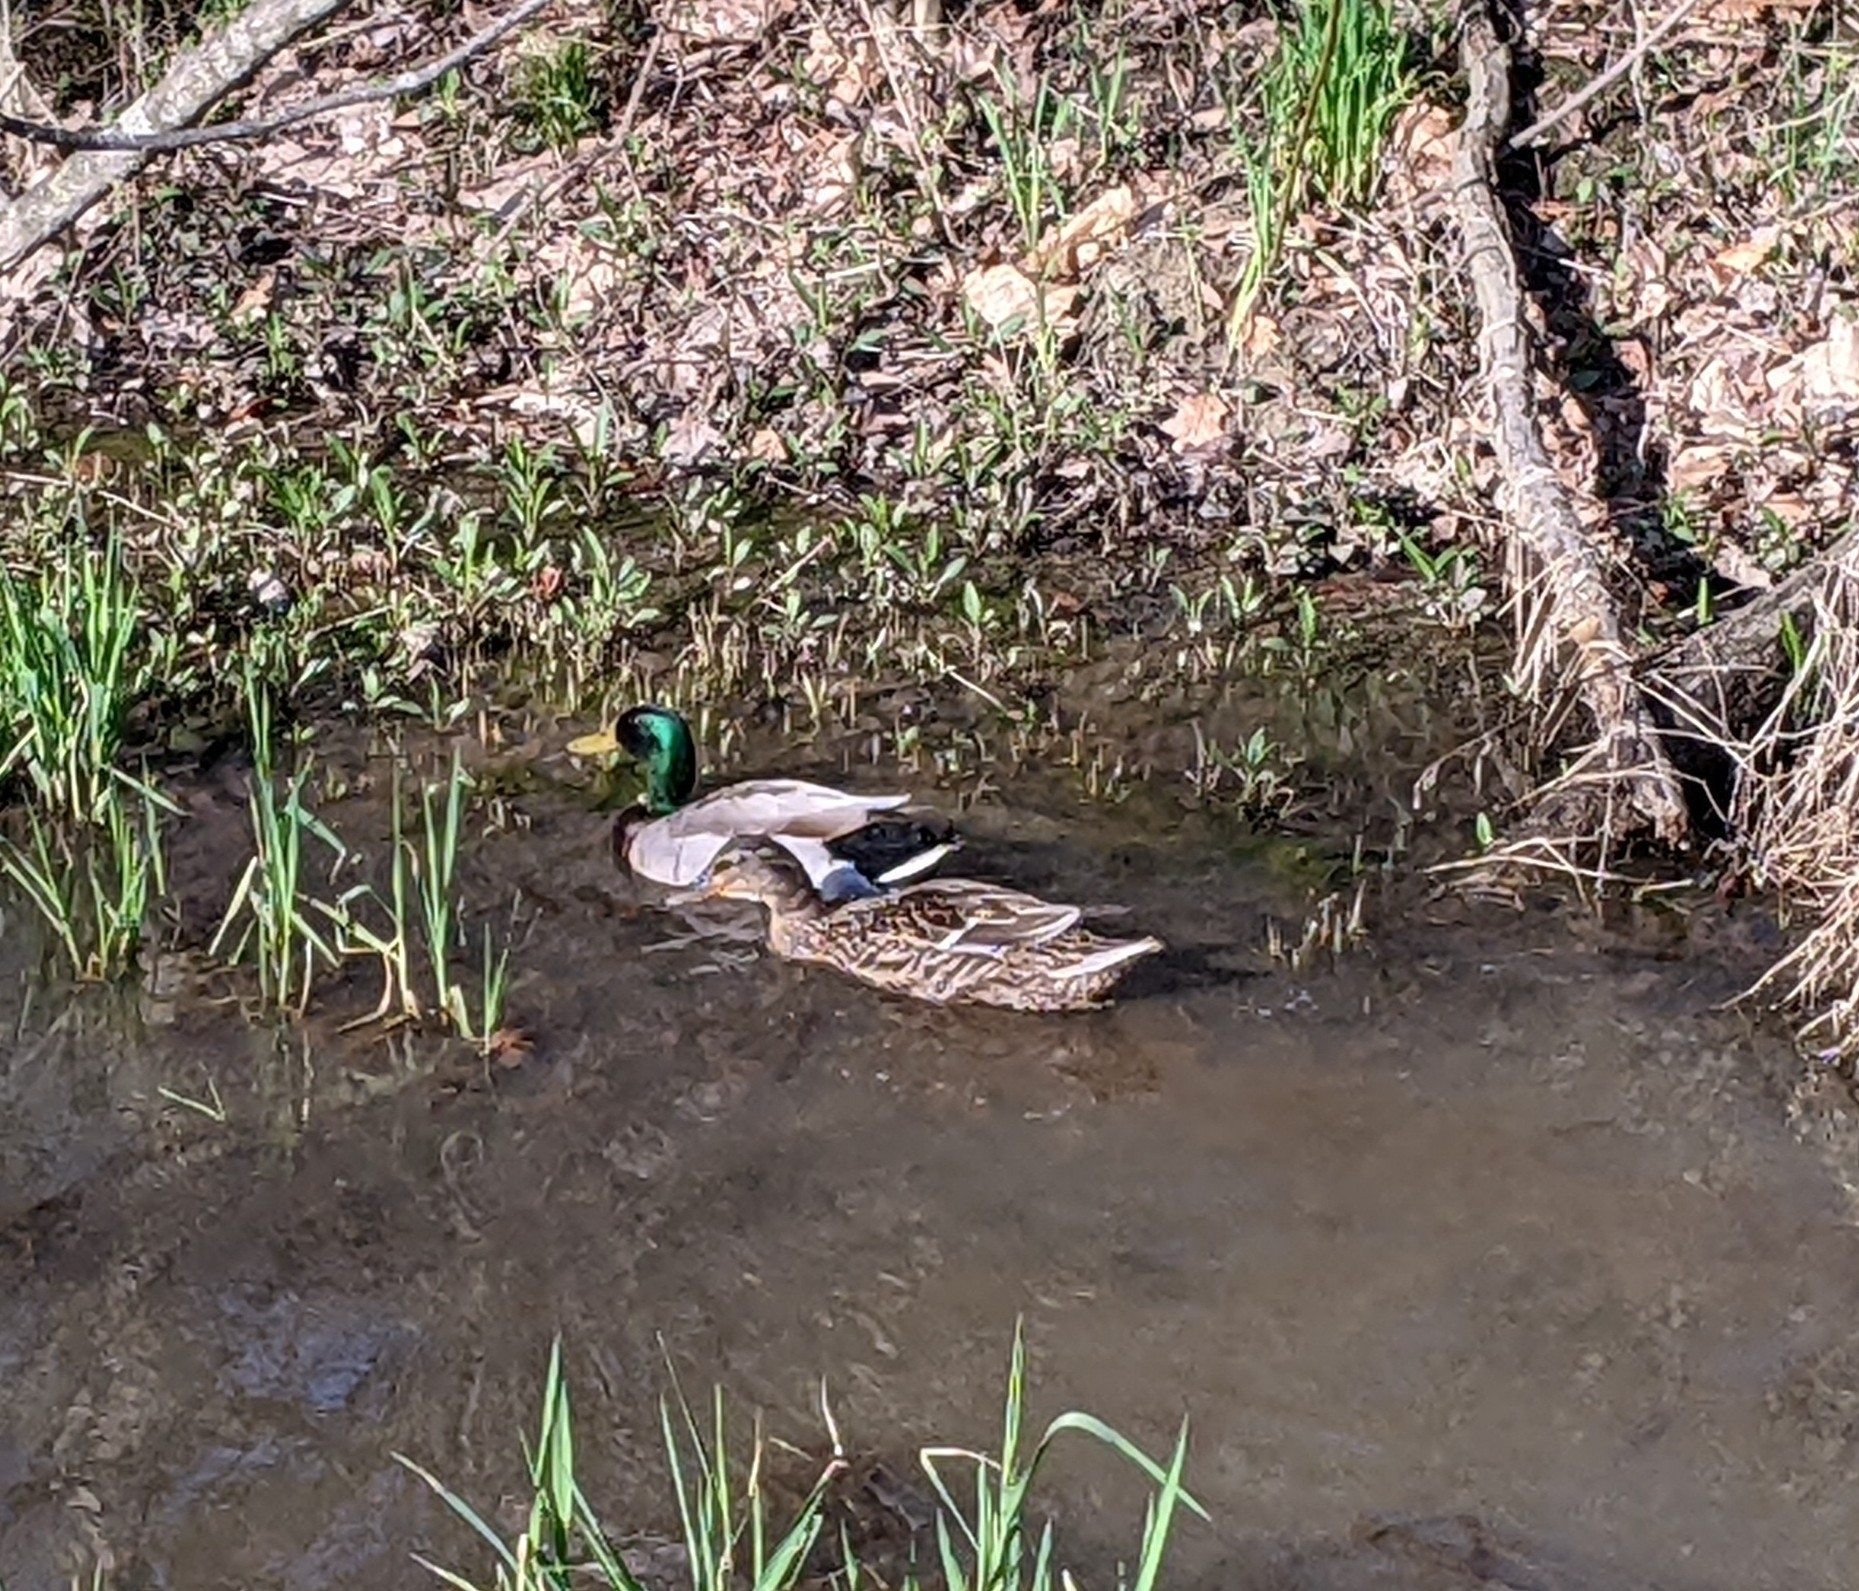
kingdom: Animalia
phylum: Chordata
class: Aves
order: Anseriformes
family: Anatidae
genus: Anas
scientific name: Anas platyrhynchos
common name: Mallard
